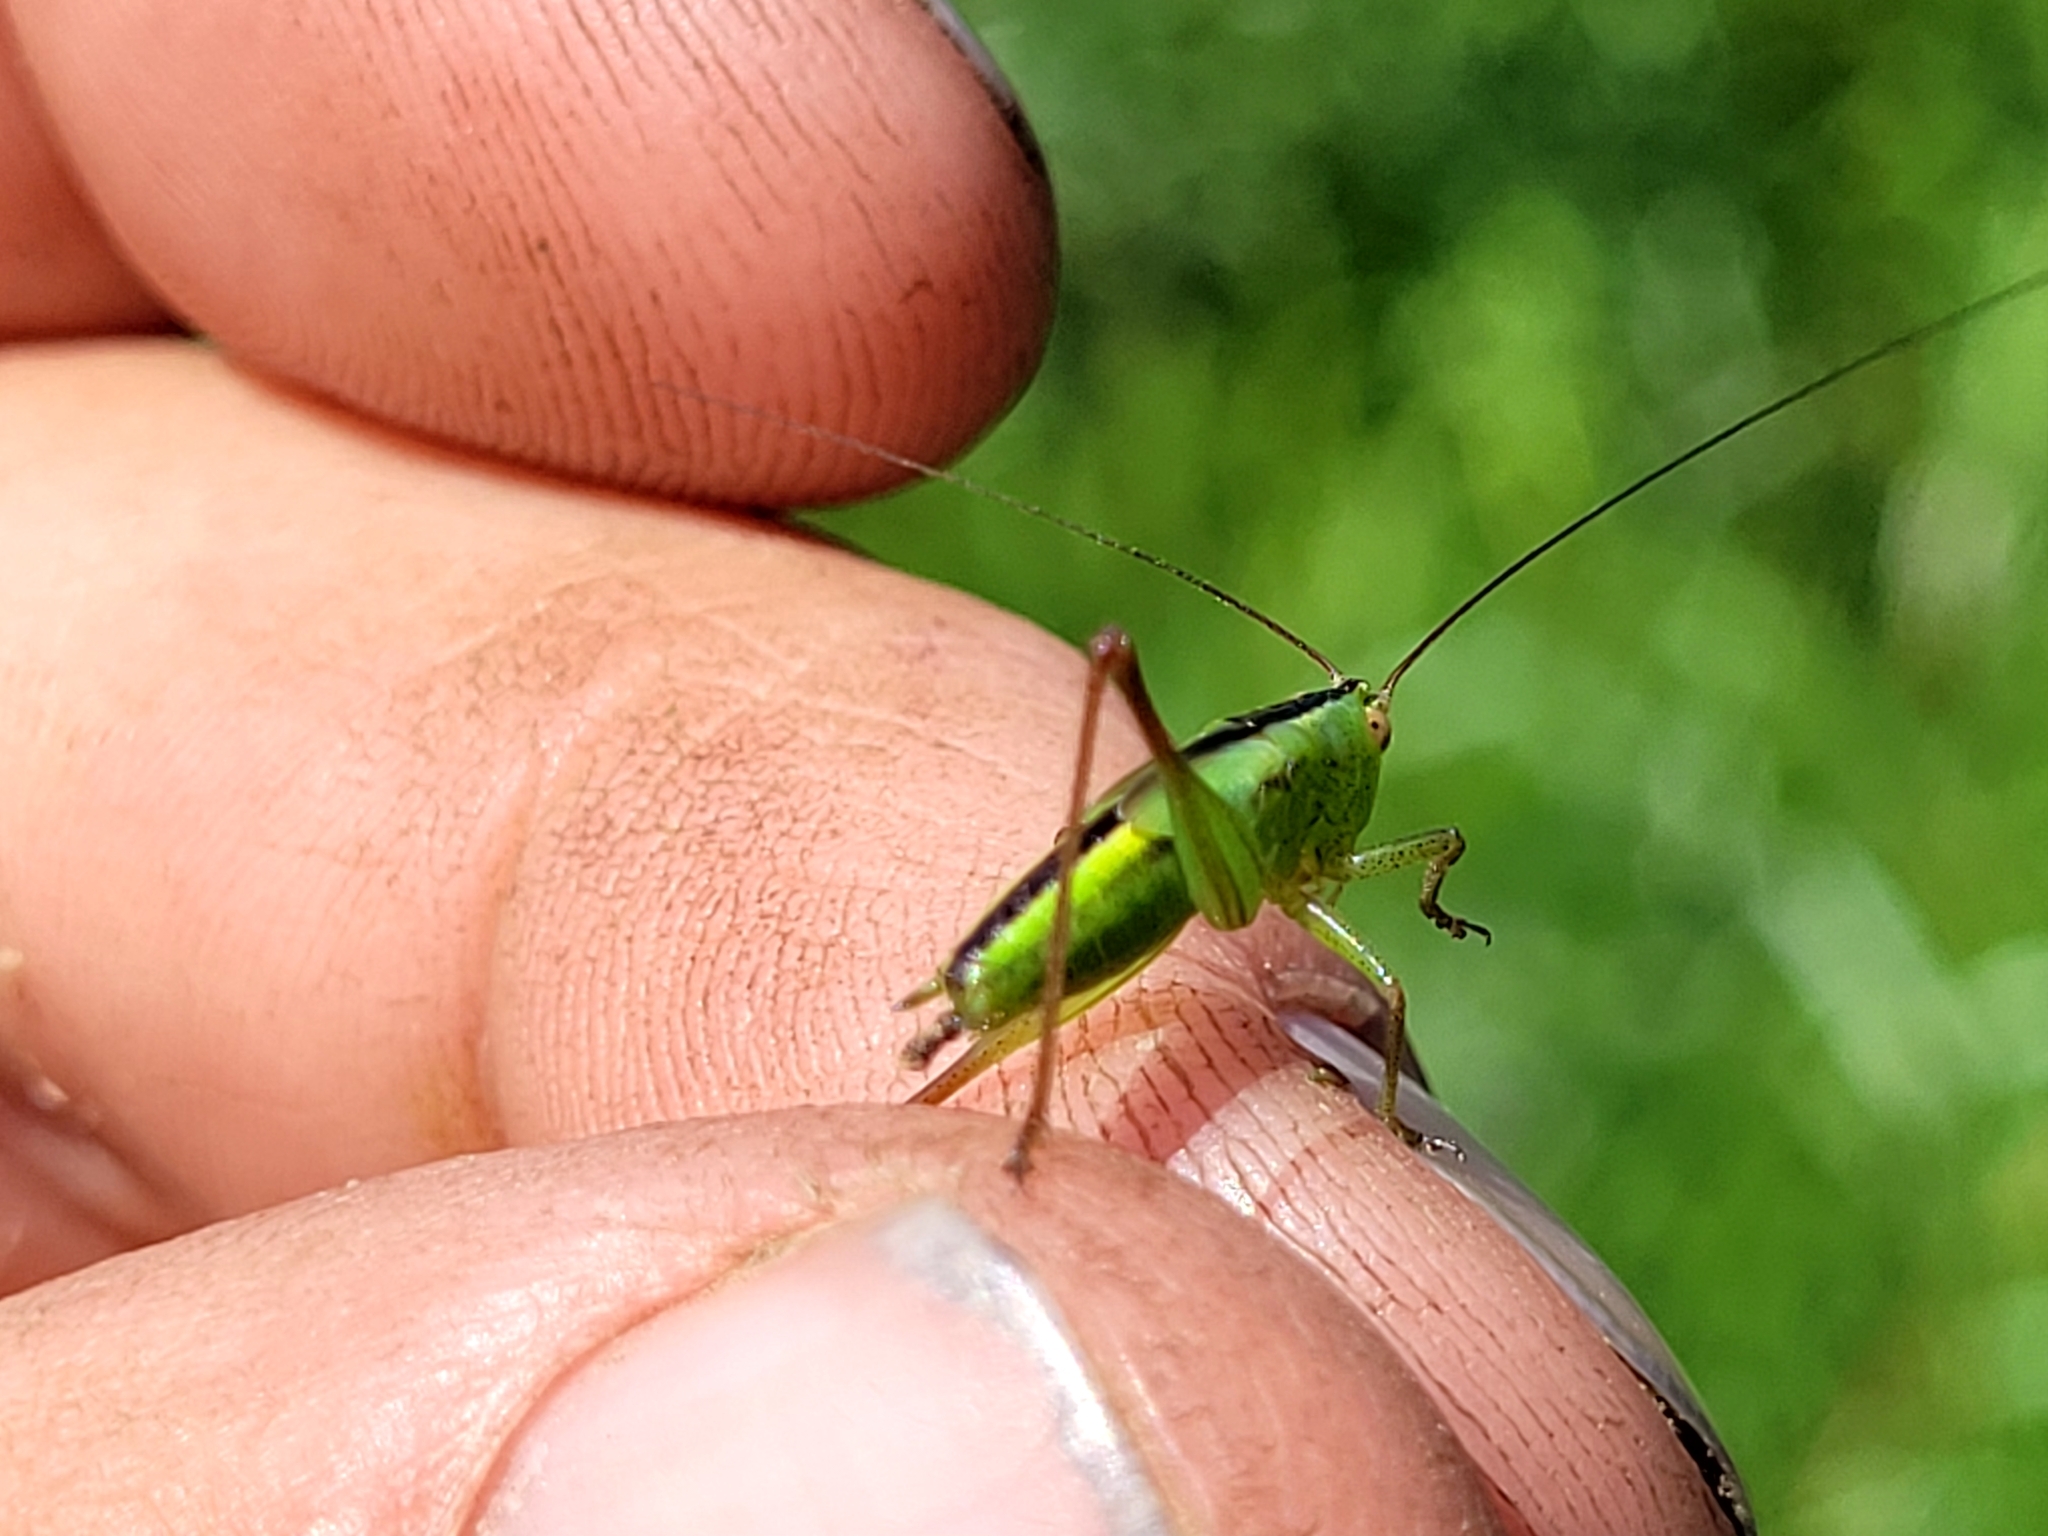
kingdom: Animalia
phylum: Arthropoda
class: Insecta
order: Orthoptera
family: Tettigoniidae
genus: Conocephalus
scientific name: Conocephalus fasciatus
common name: Slender meadow katydid
